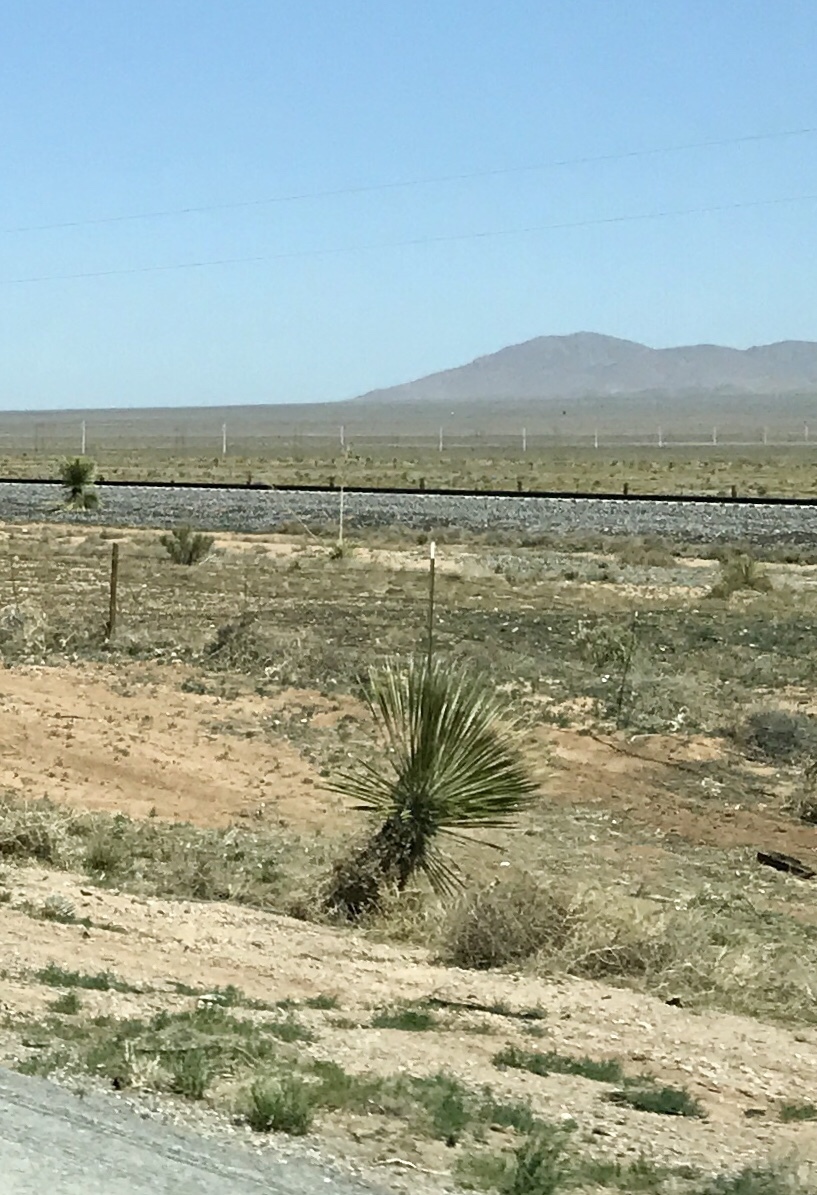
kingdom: Plantae
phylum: Tracheophyta
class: Liliopsida
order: Asparagales
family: Asparagaceae
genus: Yucca
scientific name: Yucca elata
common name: Palmella
